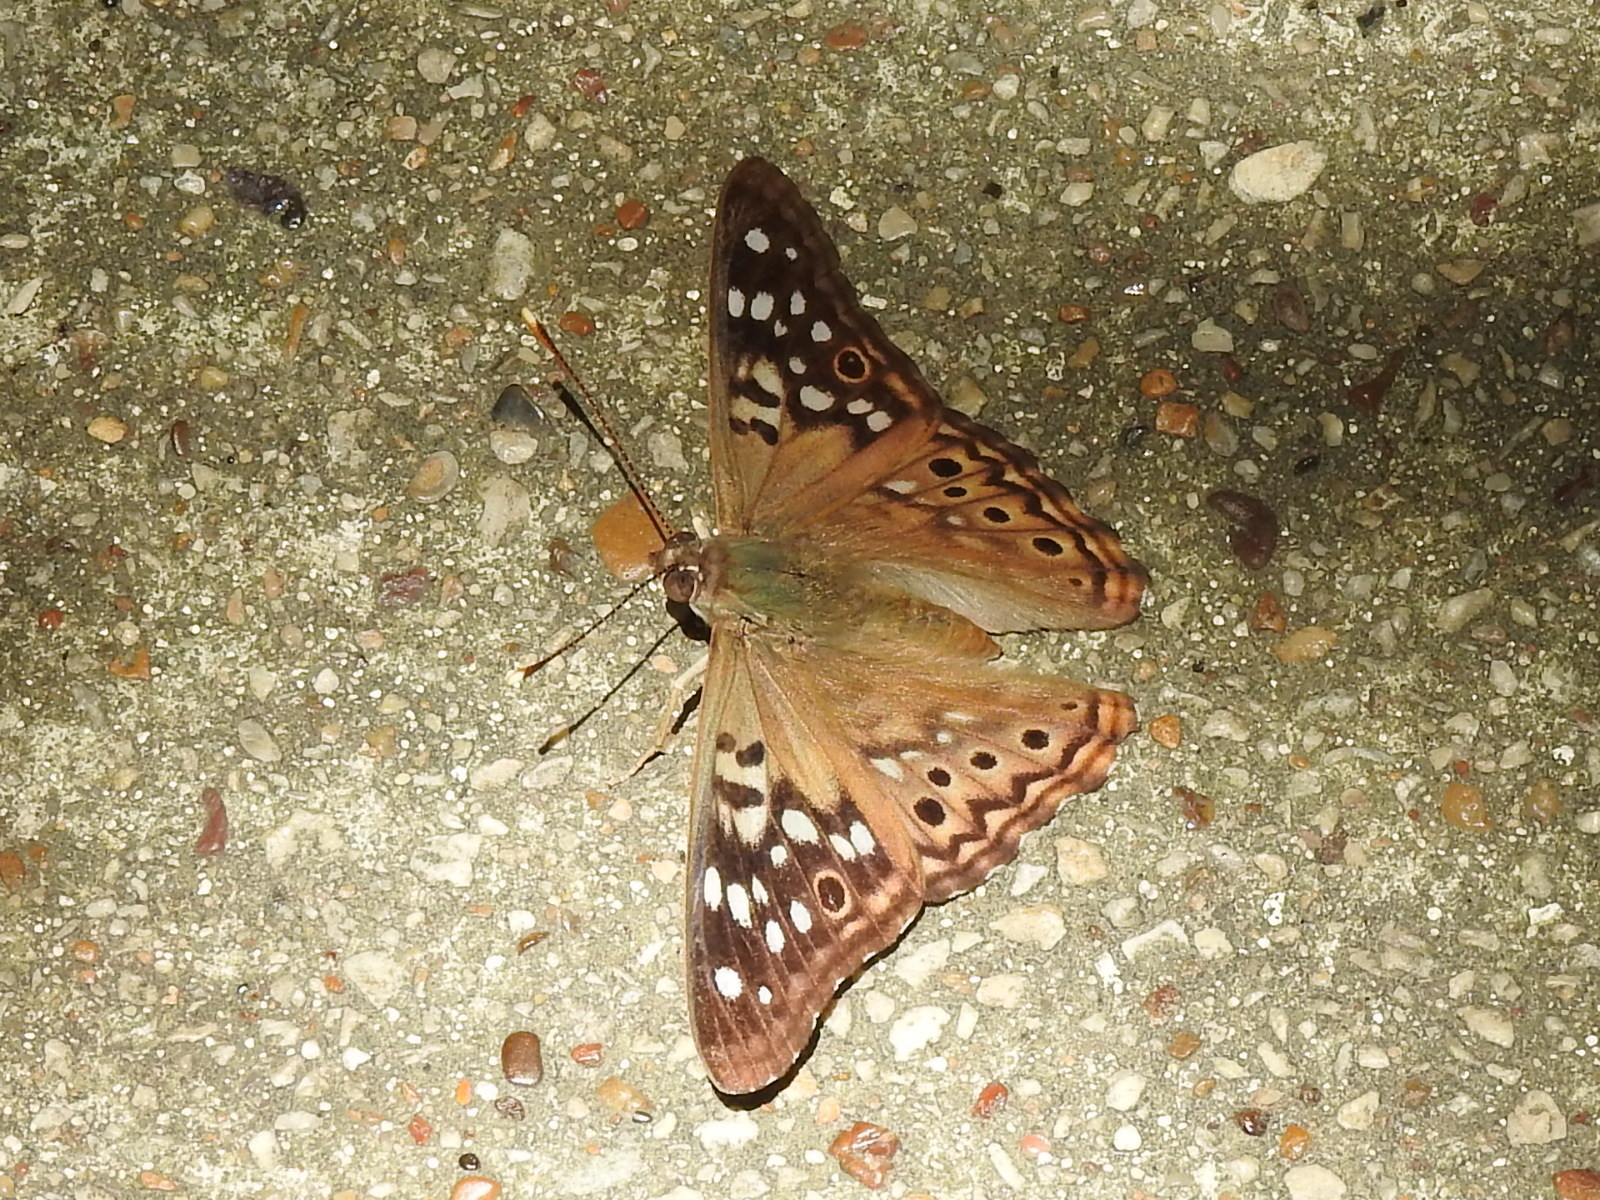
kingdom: Animalia
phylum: Arthropoda
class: Insecta
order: Lepidoptera
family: Nymphalidae
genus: Asterocampa
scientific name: Asterocampa celtis
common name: Hackberry emperor
